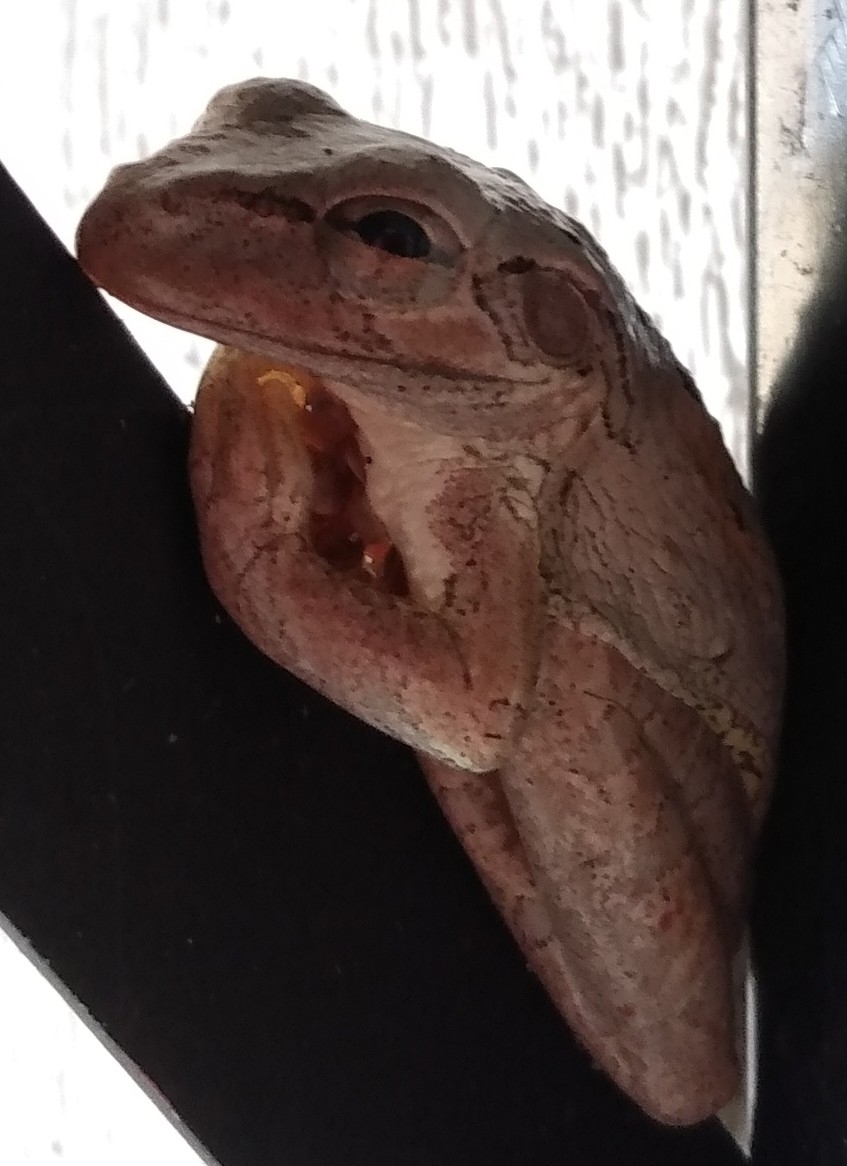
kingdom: Animalia
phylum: Chordata
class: Amphibia
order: Anura
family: Hylidae
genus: Osteopilus
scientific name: Osteopilus septentrionalis
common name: Cuban treefrog
